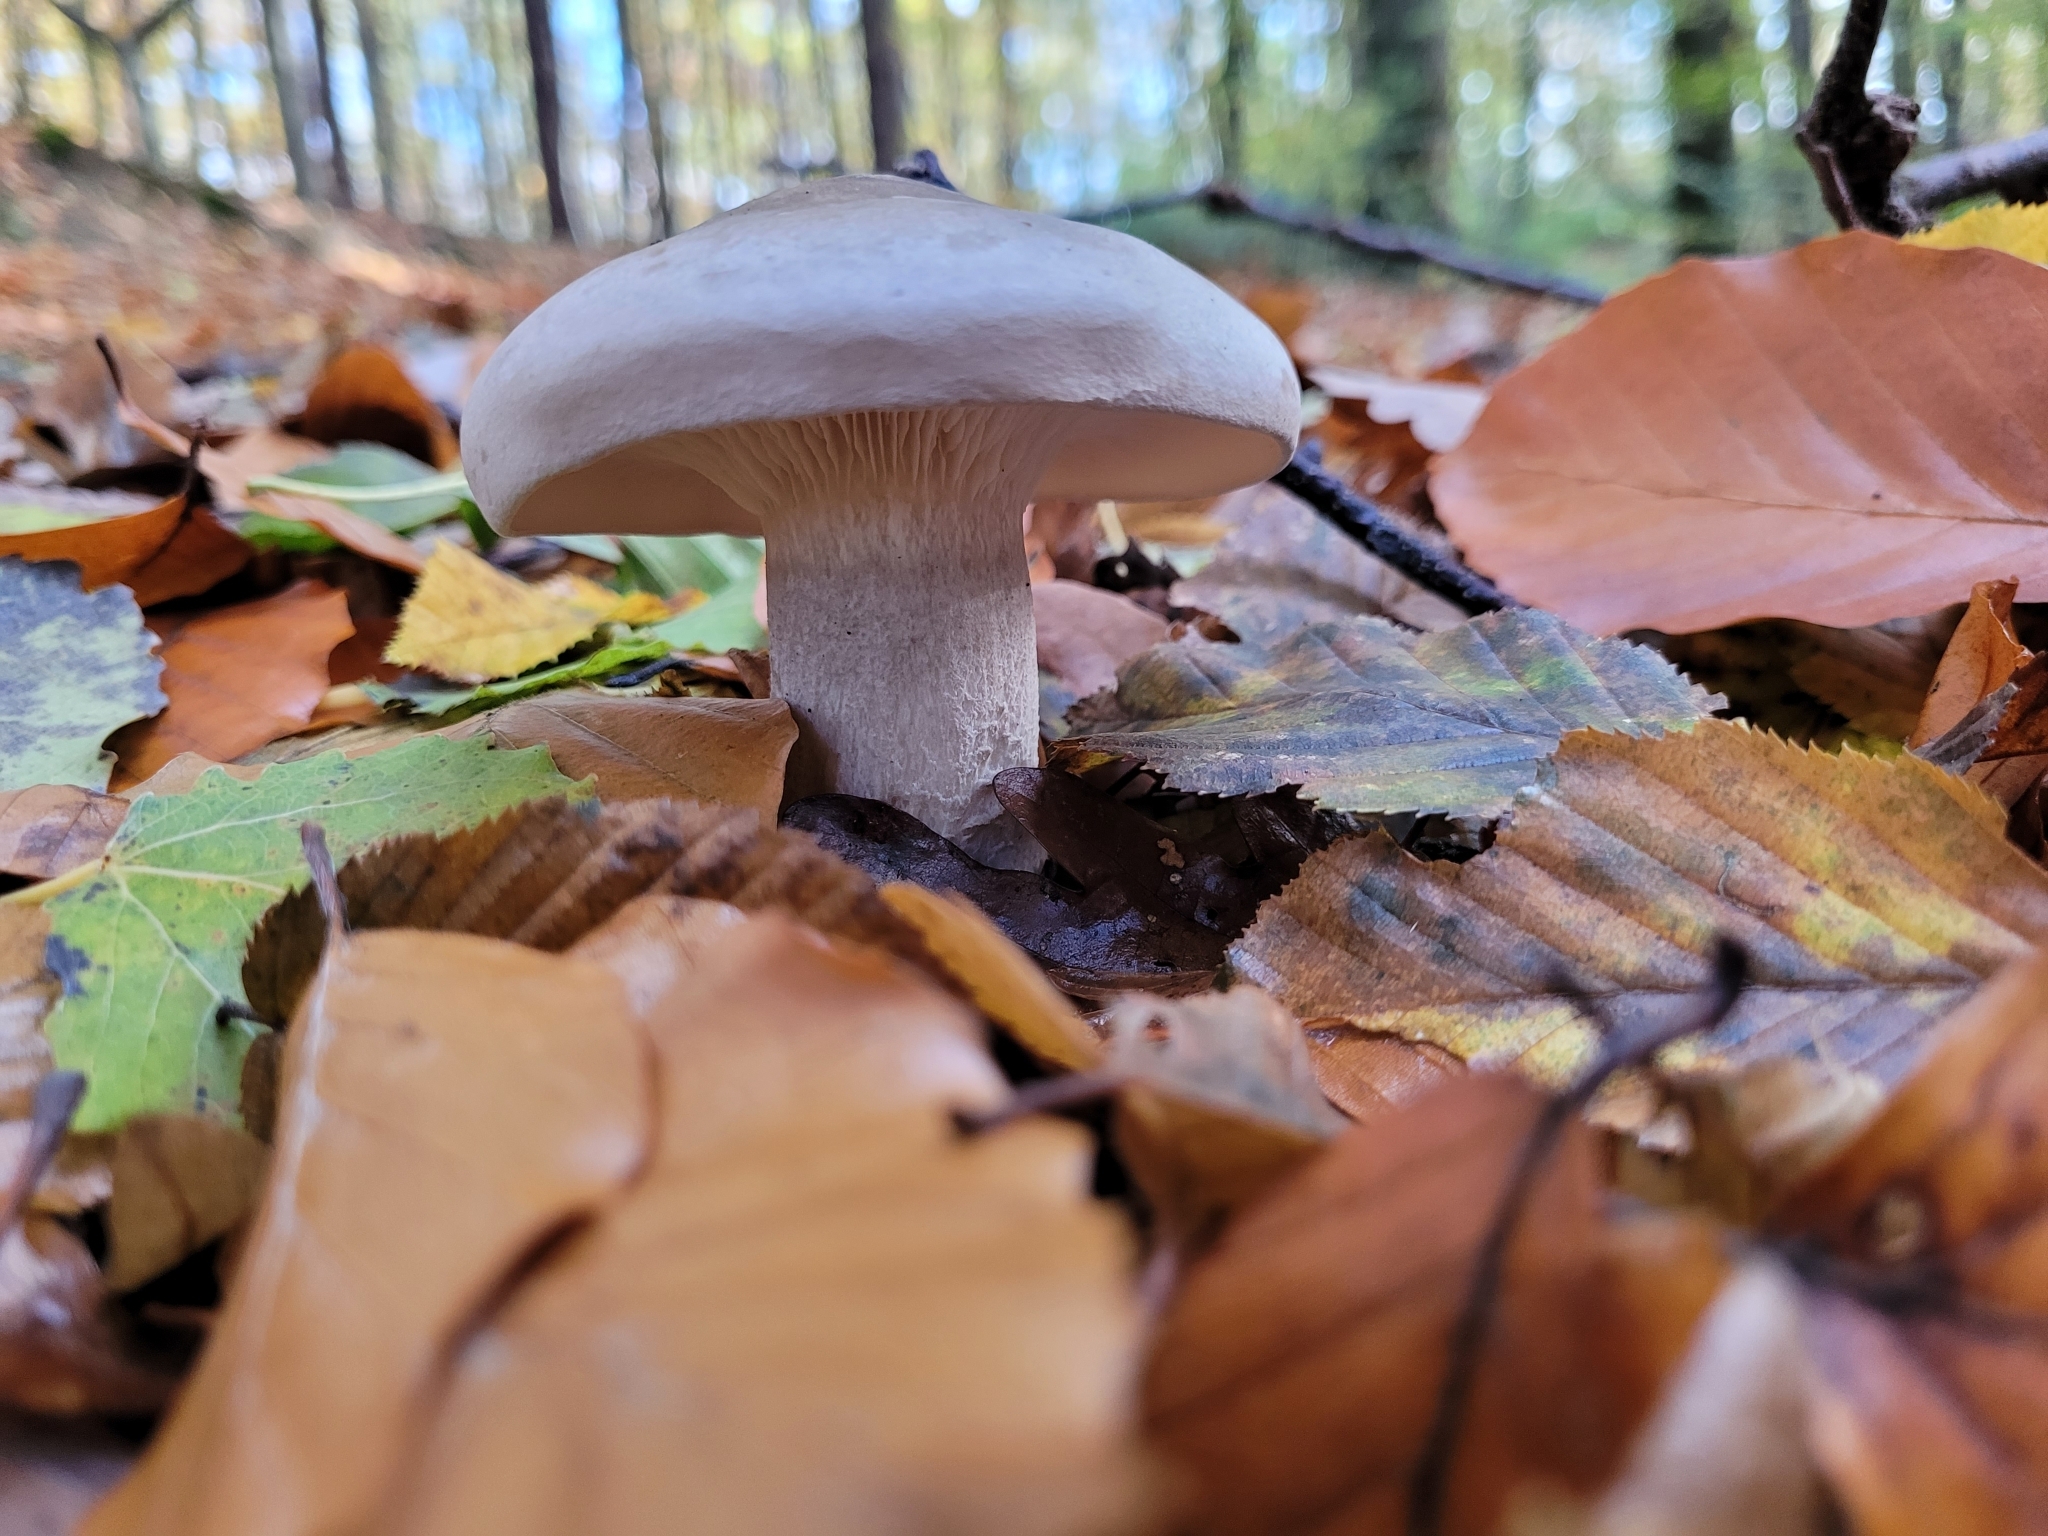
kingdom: Fungi
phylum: Basidiomycota
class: Agaricomycetes
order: Agaricales
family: Tricholomataceae
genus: Clitocybe
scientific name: Clitocybe nebularis
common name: Clouded agaric
